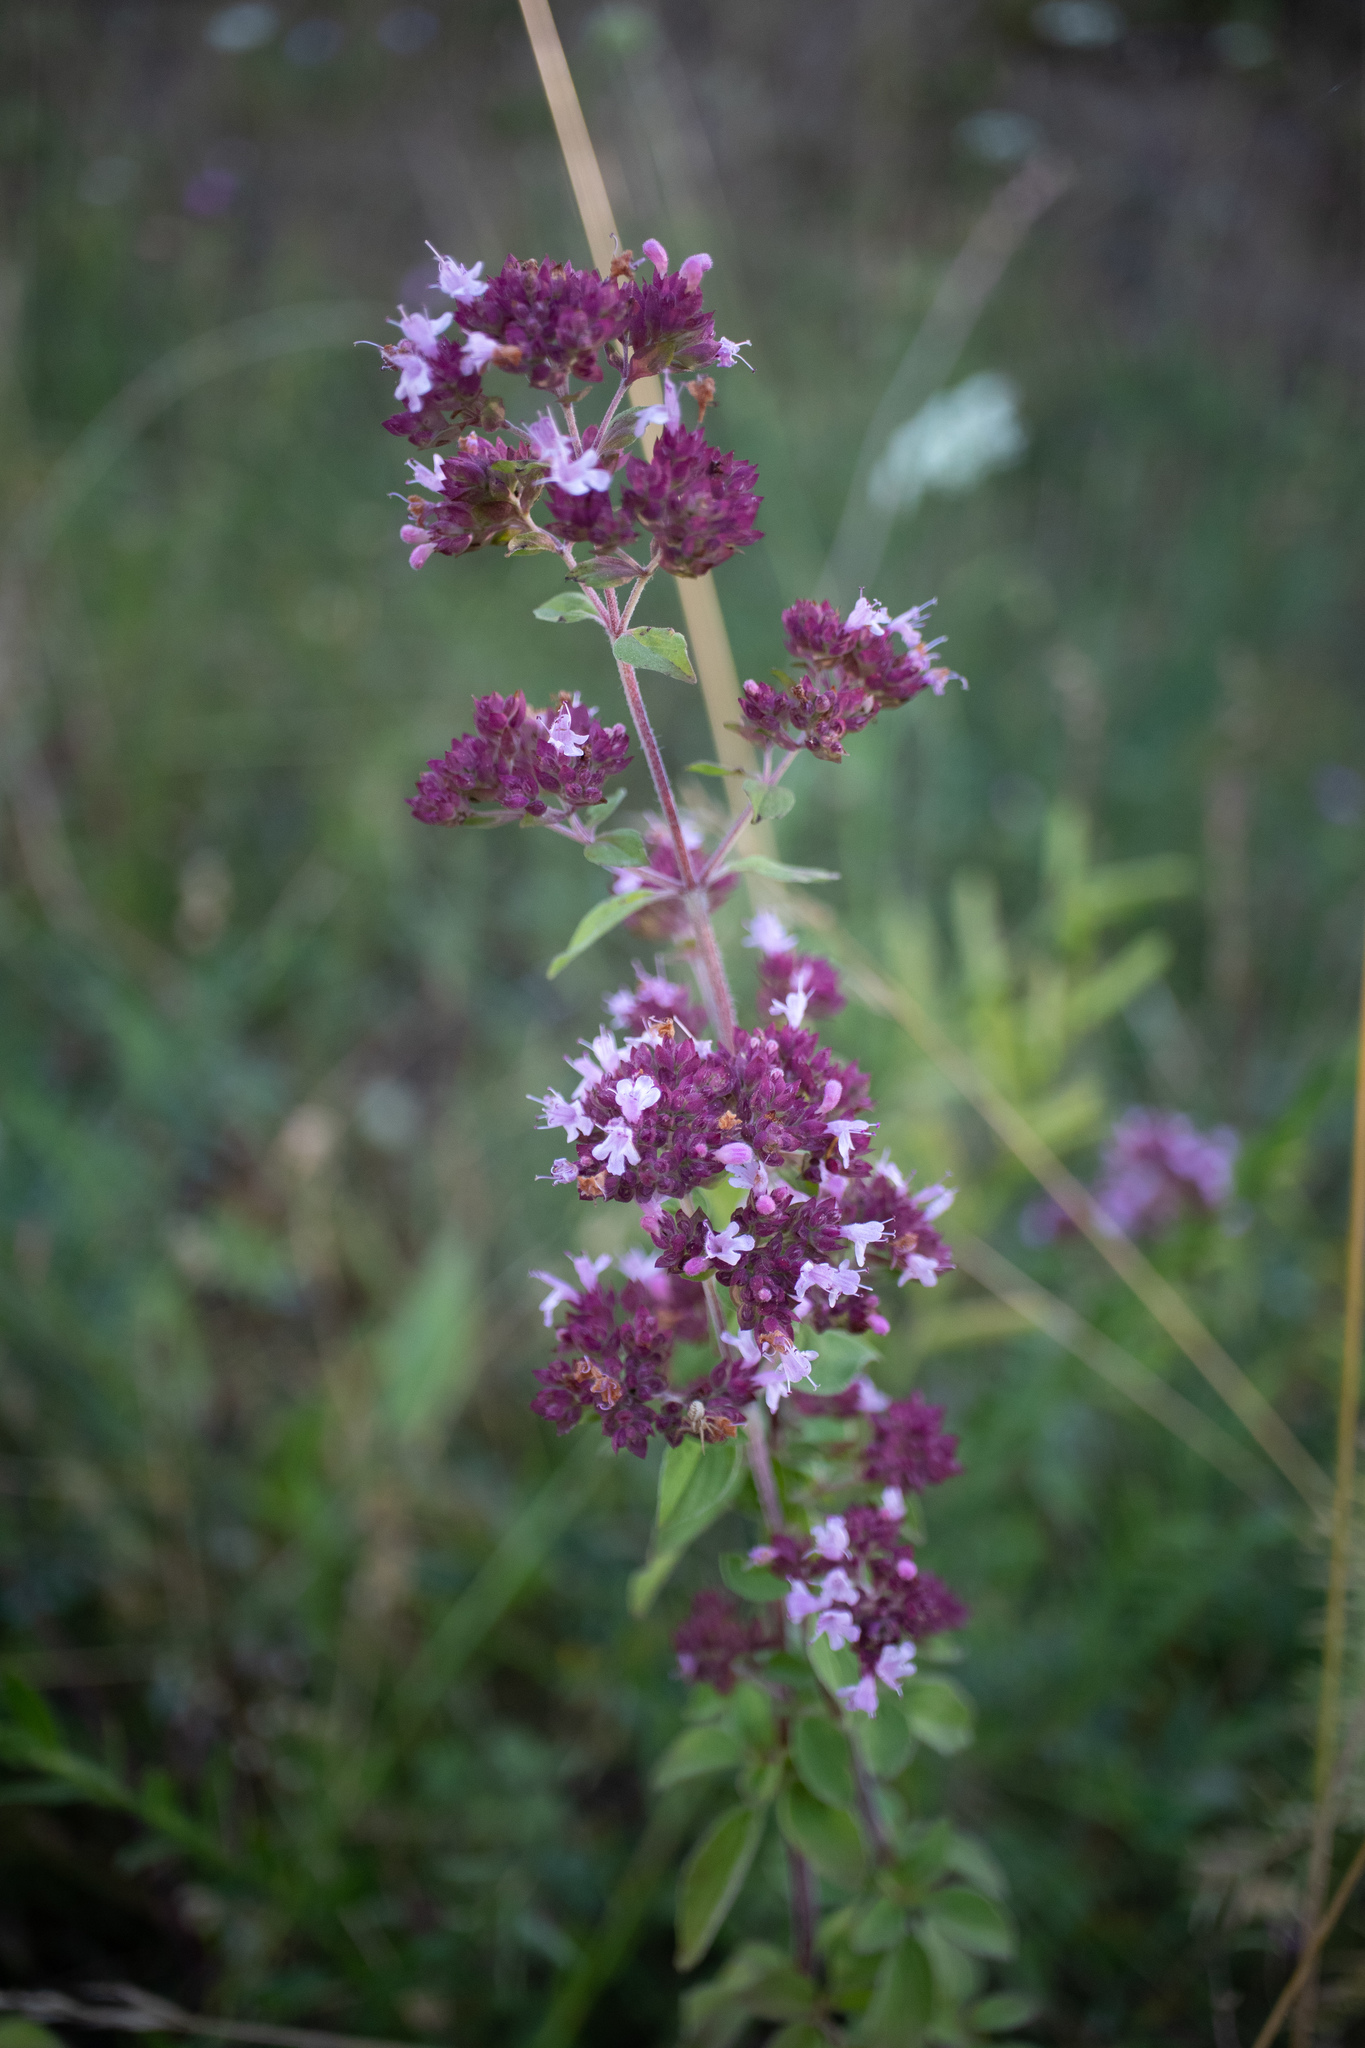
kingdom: Plantae
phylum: Tracheophyta
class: Magnoliopsida
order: Lamiales
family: Lamiaceae
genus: Origanum
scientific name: Origanum vulgare
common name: Wild marjoram
